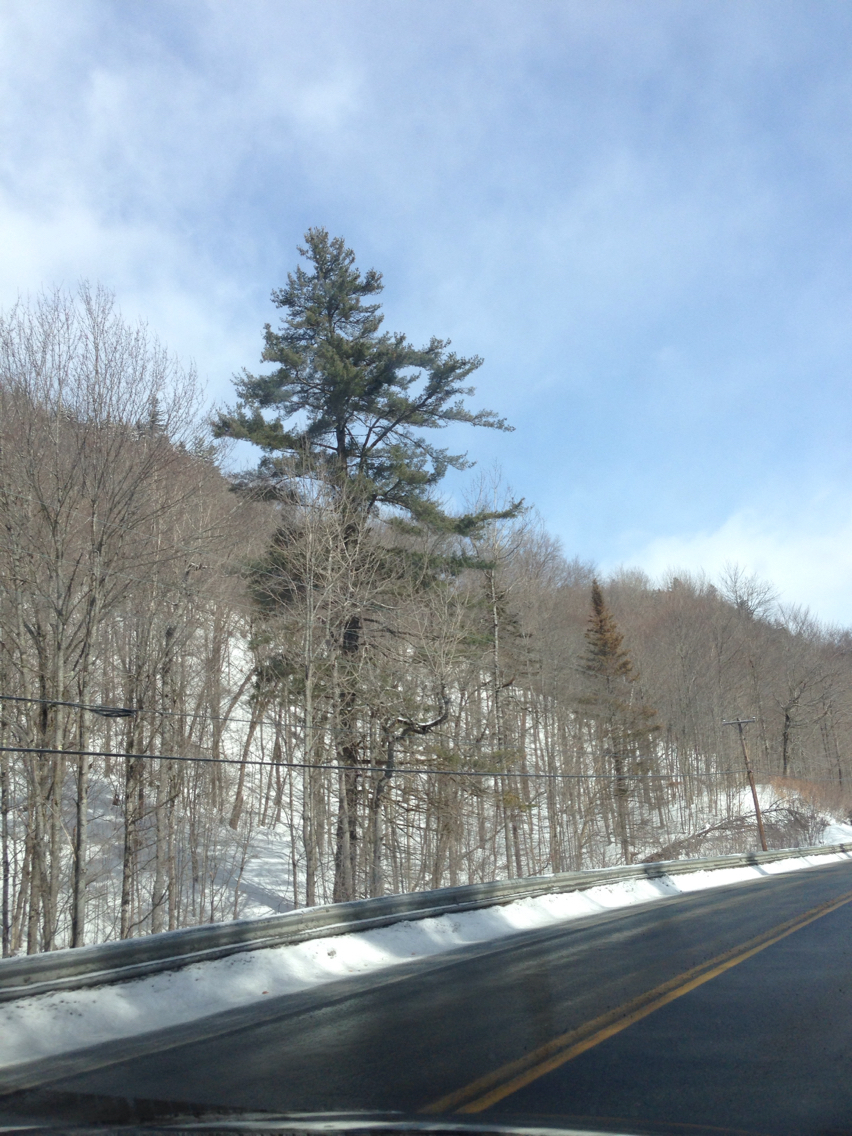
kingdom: Plantae
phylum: Tracheophyta
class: Pinopsida
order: Pinales
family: Pinaceae
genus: Pinus
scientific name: Pinus strobus
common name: Weymouth pine
